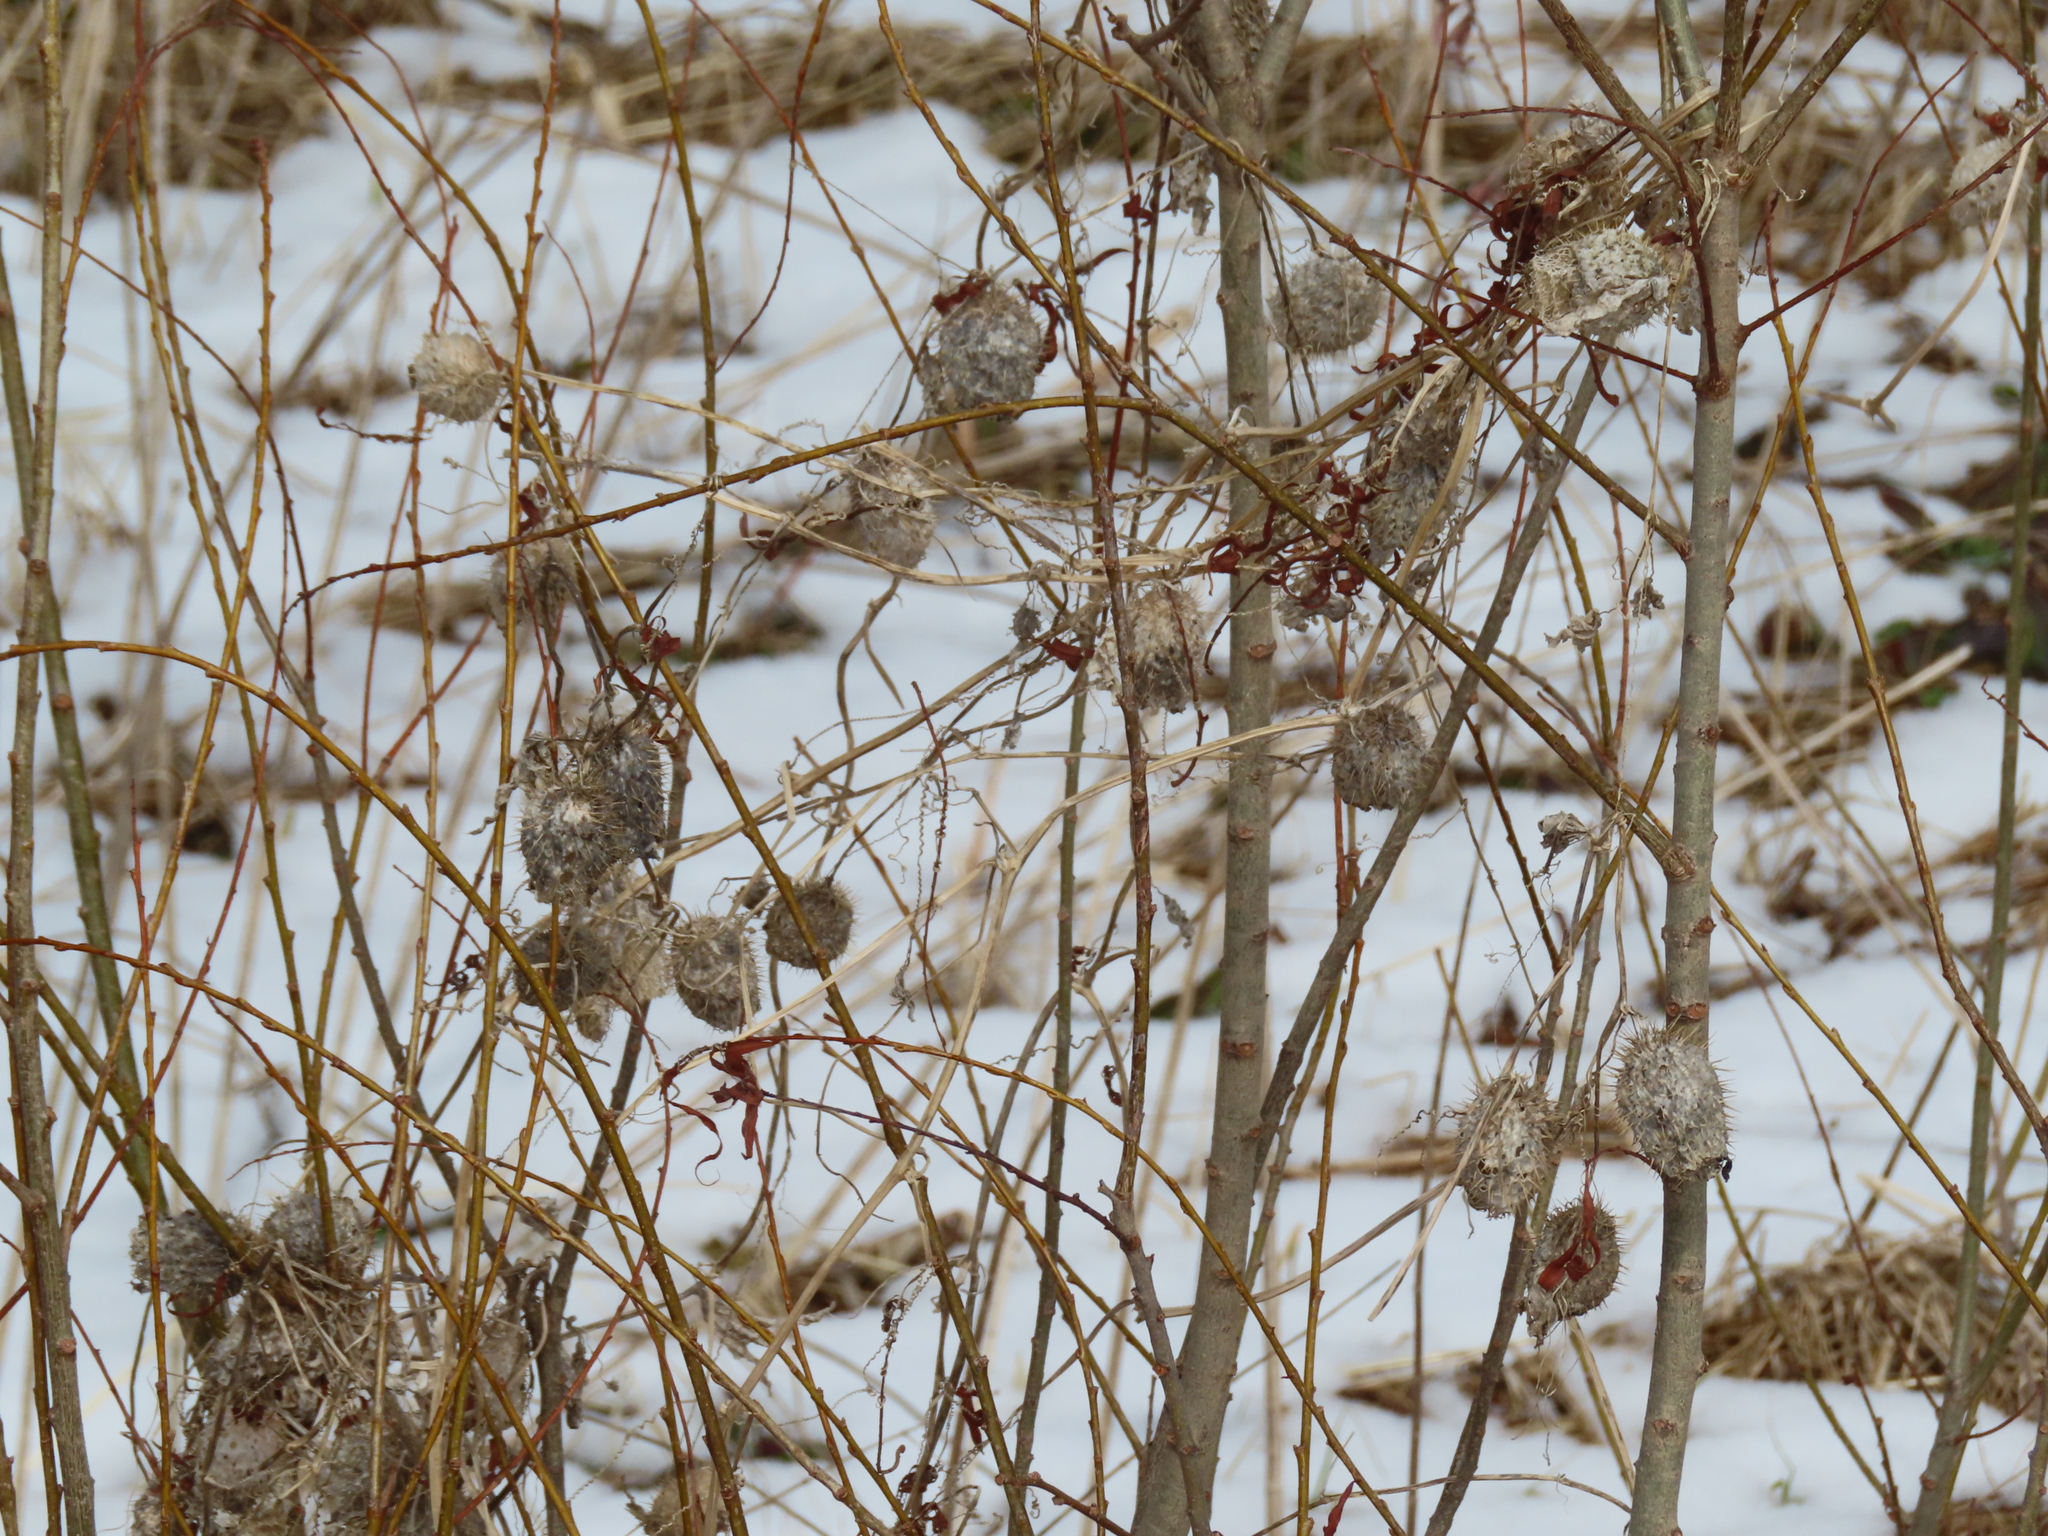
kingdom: Plantae
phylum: Tracheophyta
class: Magnoliopsida
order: Cucurbitales
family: Cucurbitaceae
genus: Echinocystis
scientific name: Echinocystis lobata
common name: Wild cucumber
